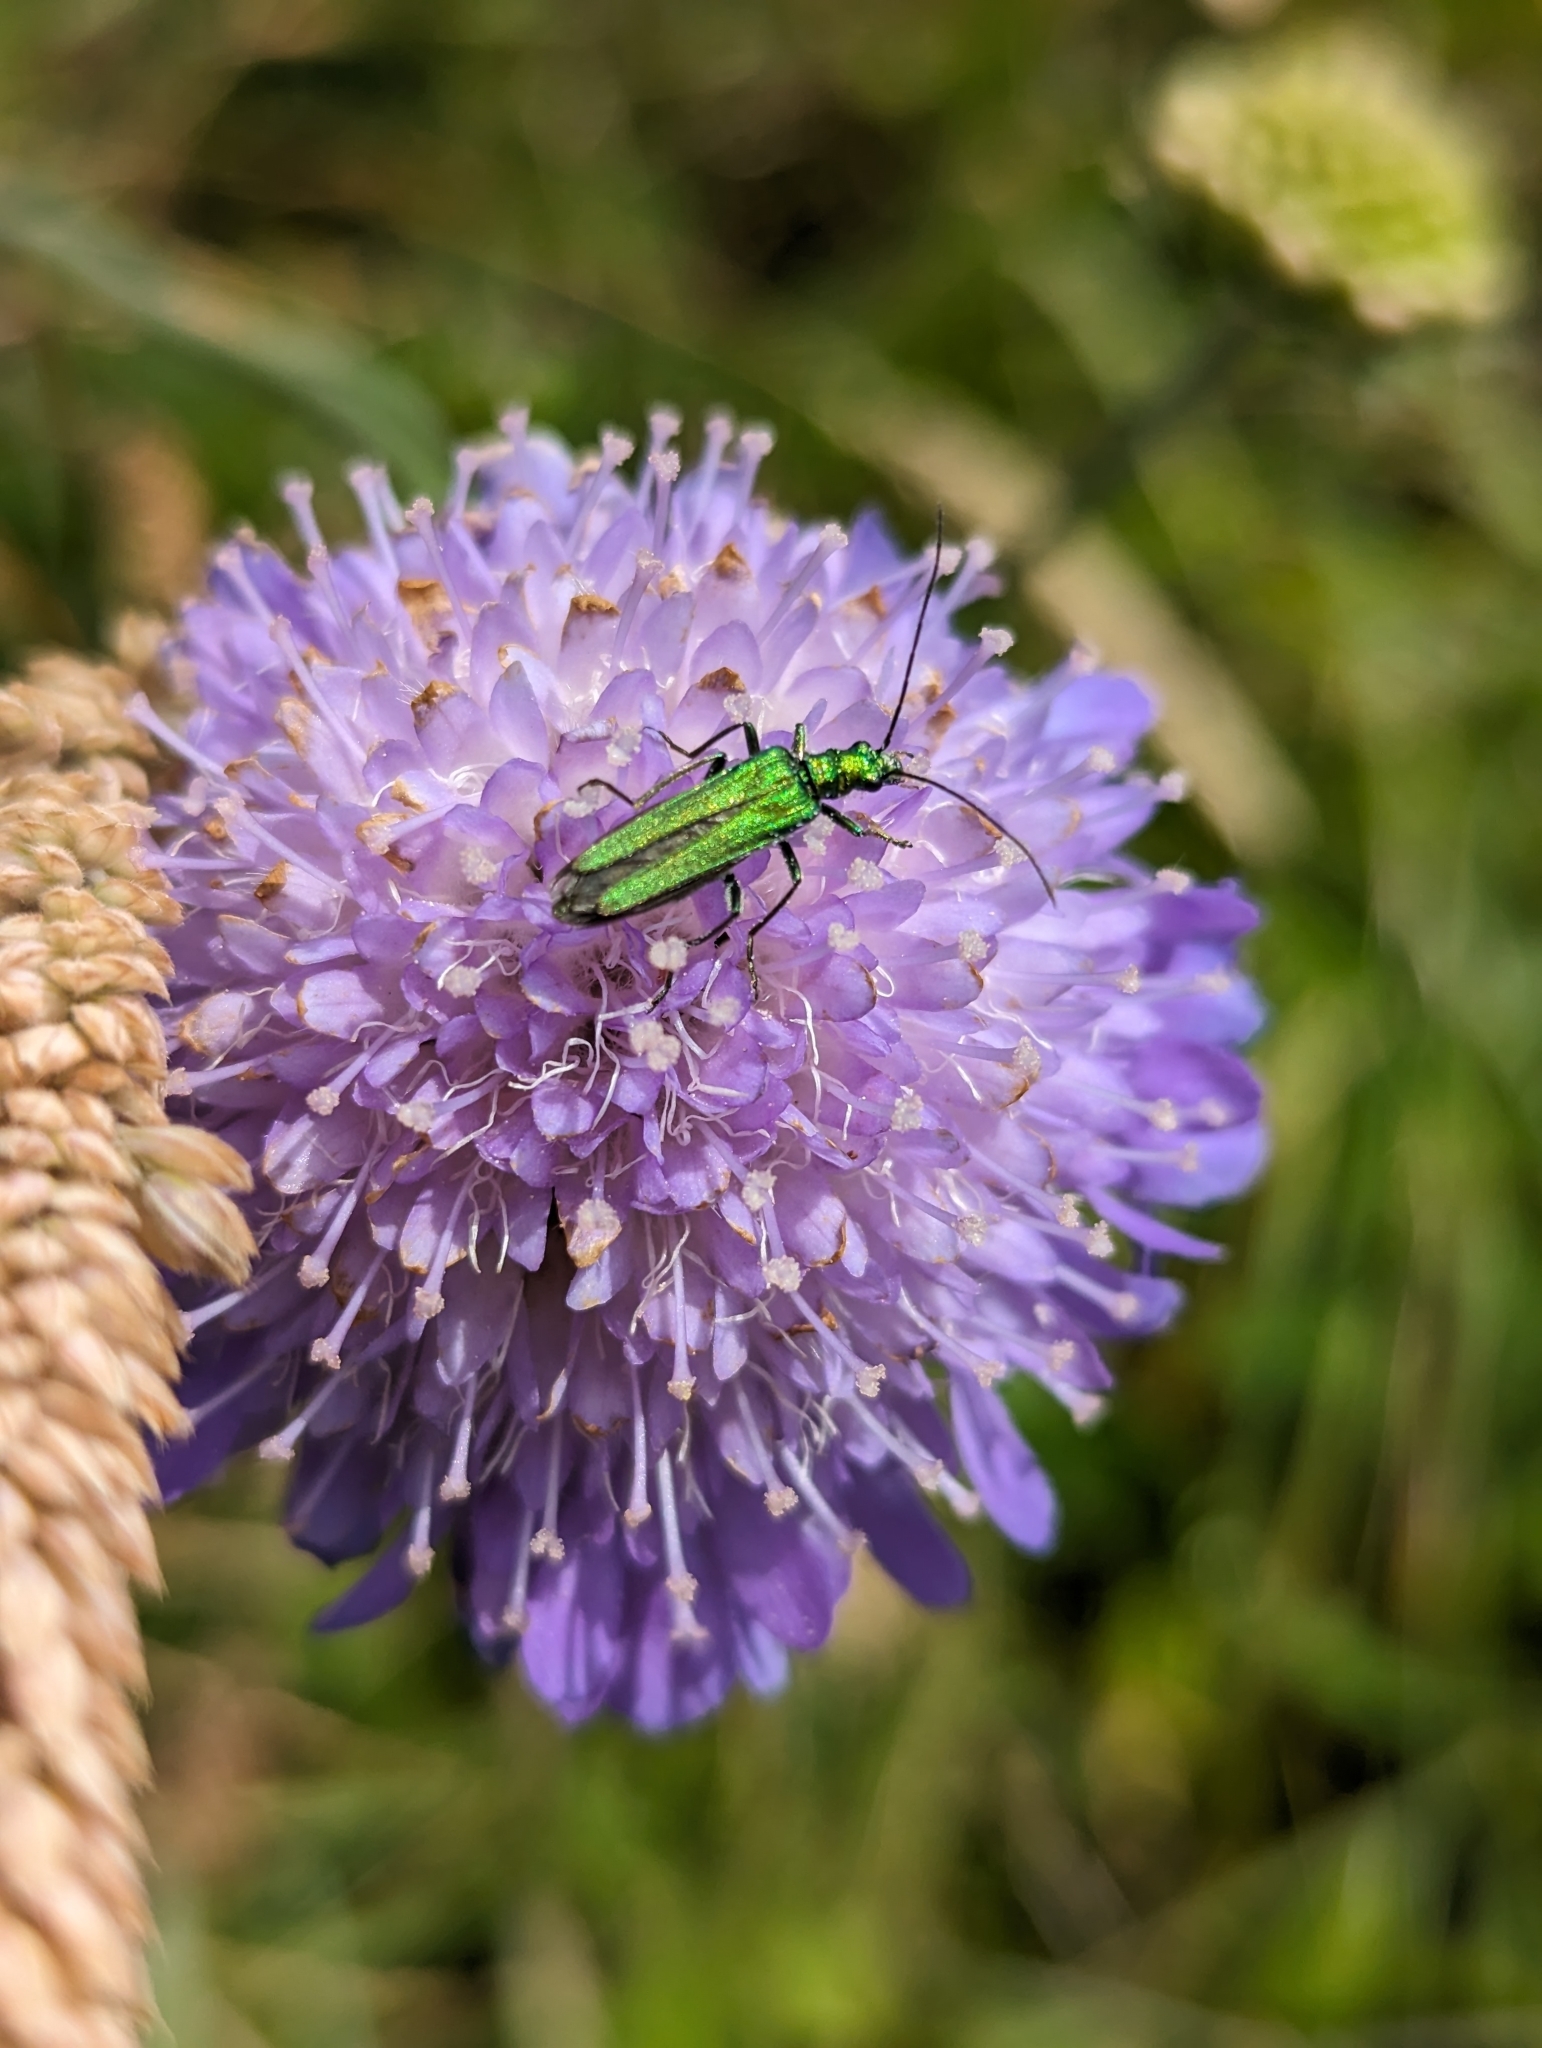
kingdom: Animalia
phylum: Arthropoda
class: Insecta
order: Coleoptera
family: Oedemeridae
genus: Oedemera
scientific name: Oedemera nobilis
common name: Swollen-thighed beetle
